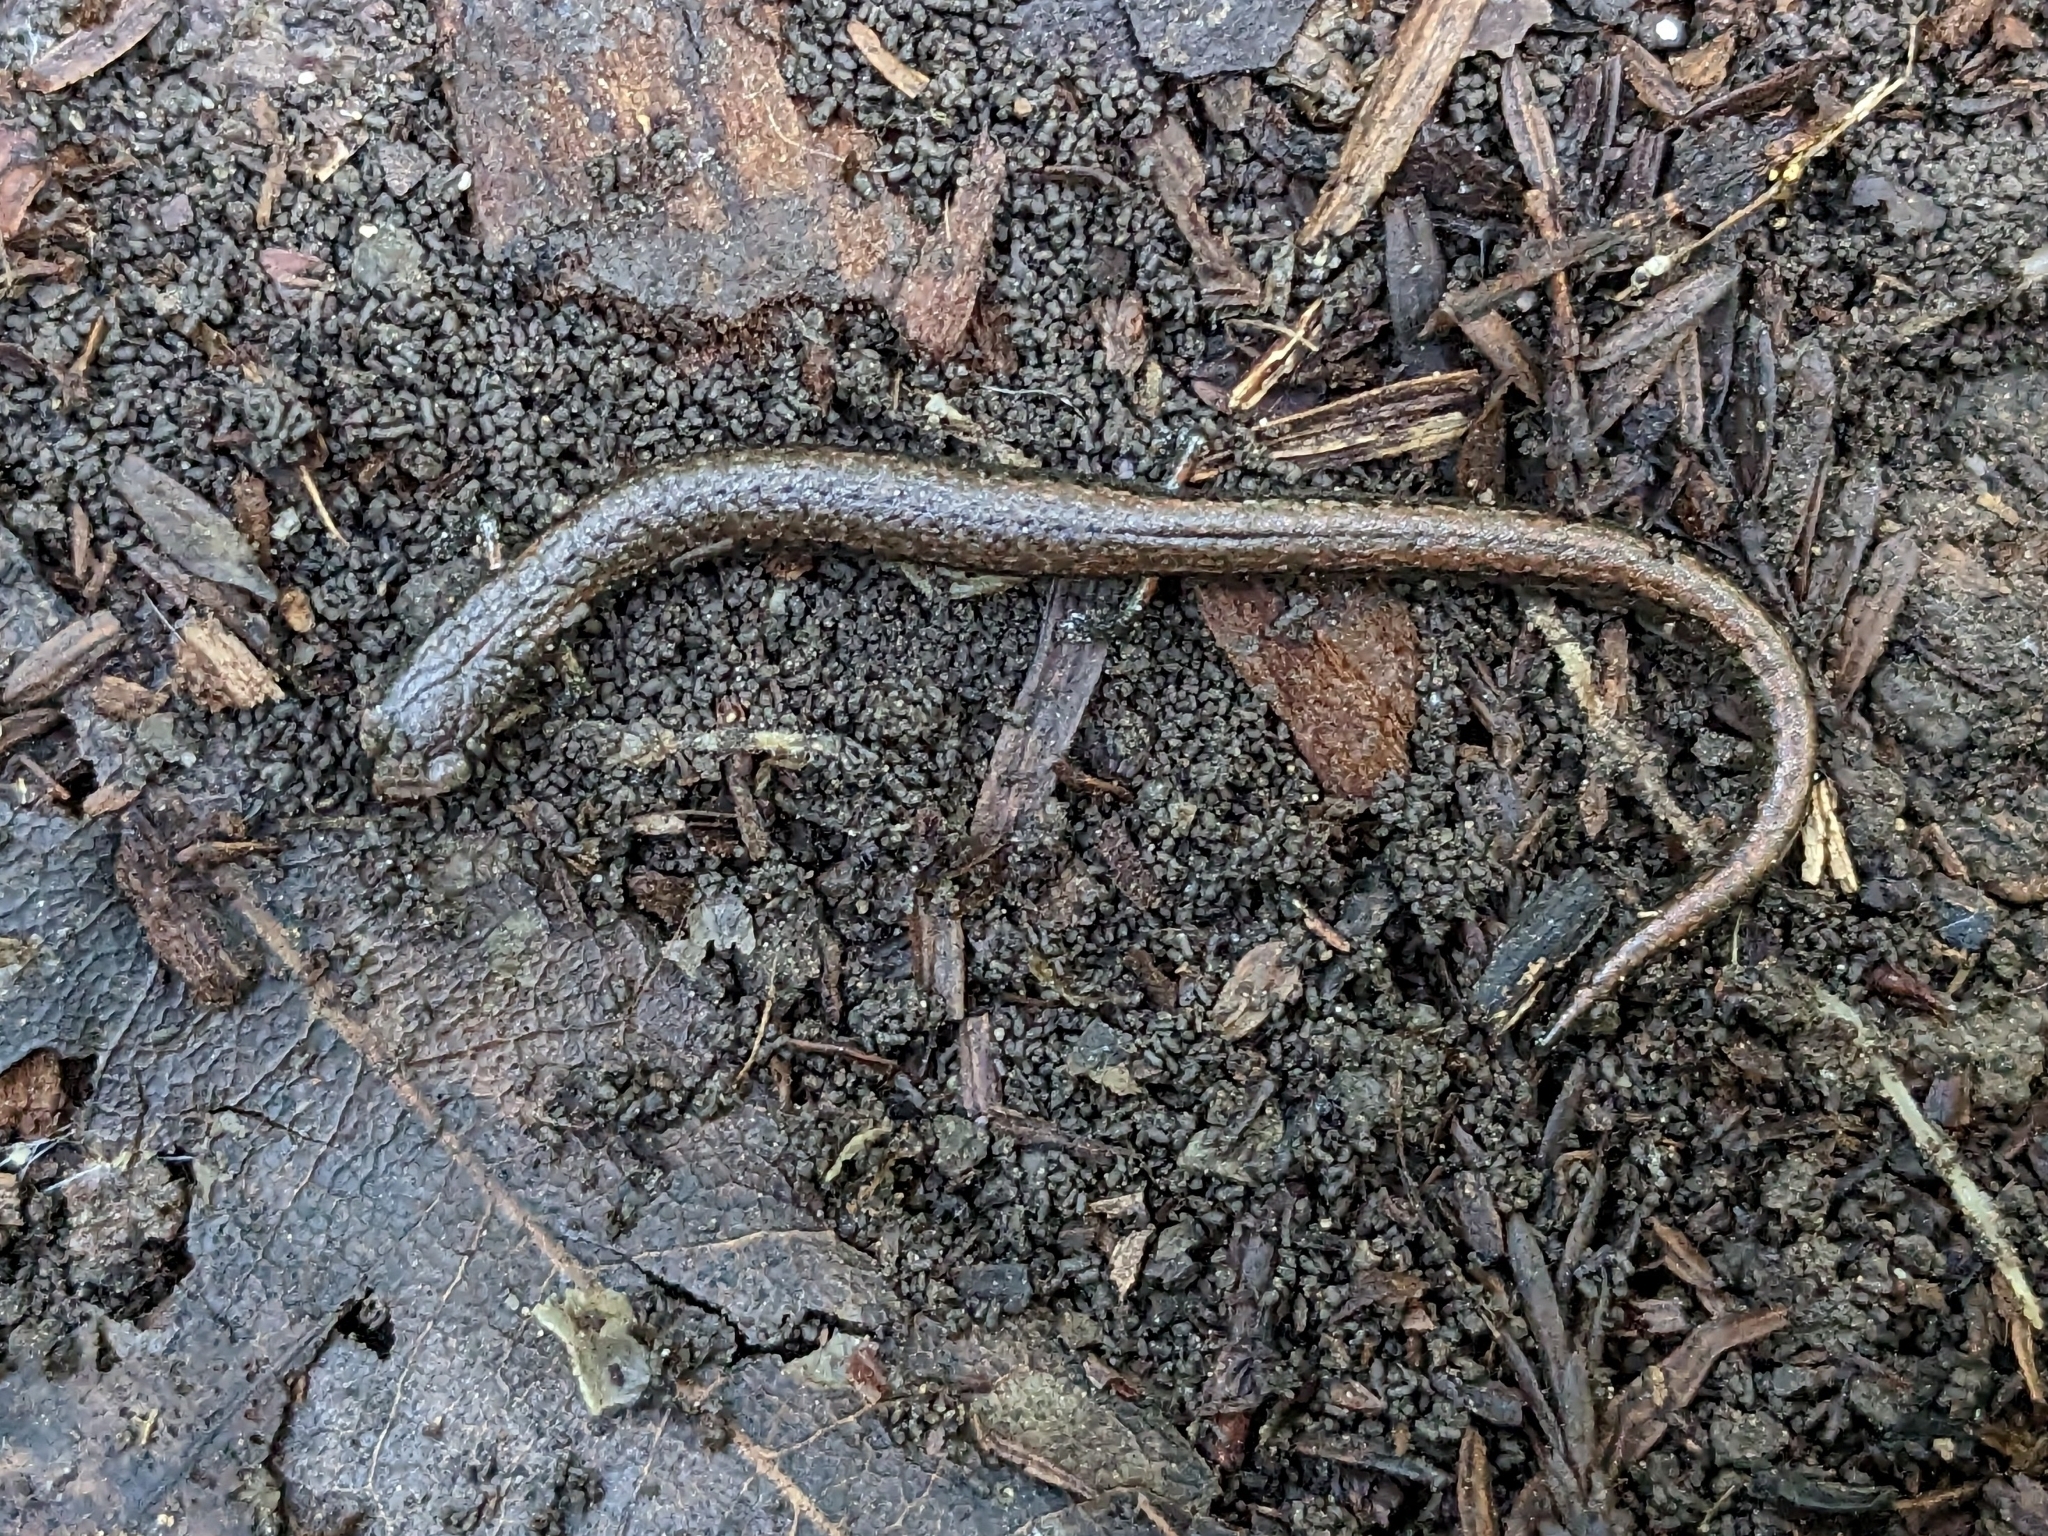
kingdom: Animalia
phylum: Chordata
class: Amphibia
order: Caudata
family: Plethodontidae
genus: Batrachoseps
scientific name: Batrachoseps attenuatus
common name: California slender salamander
